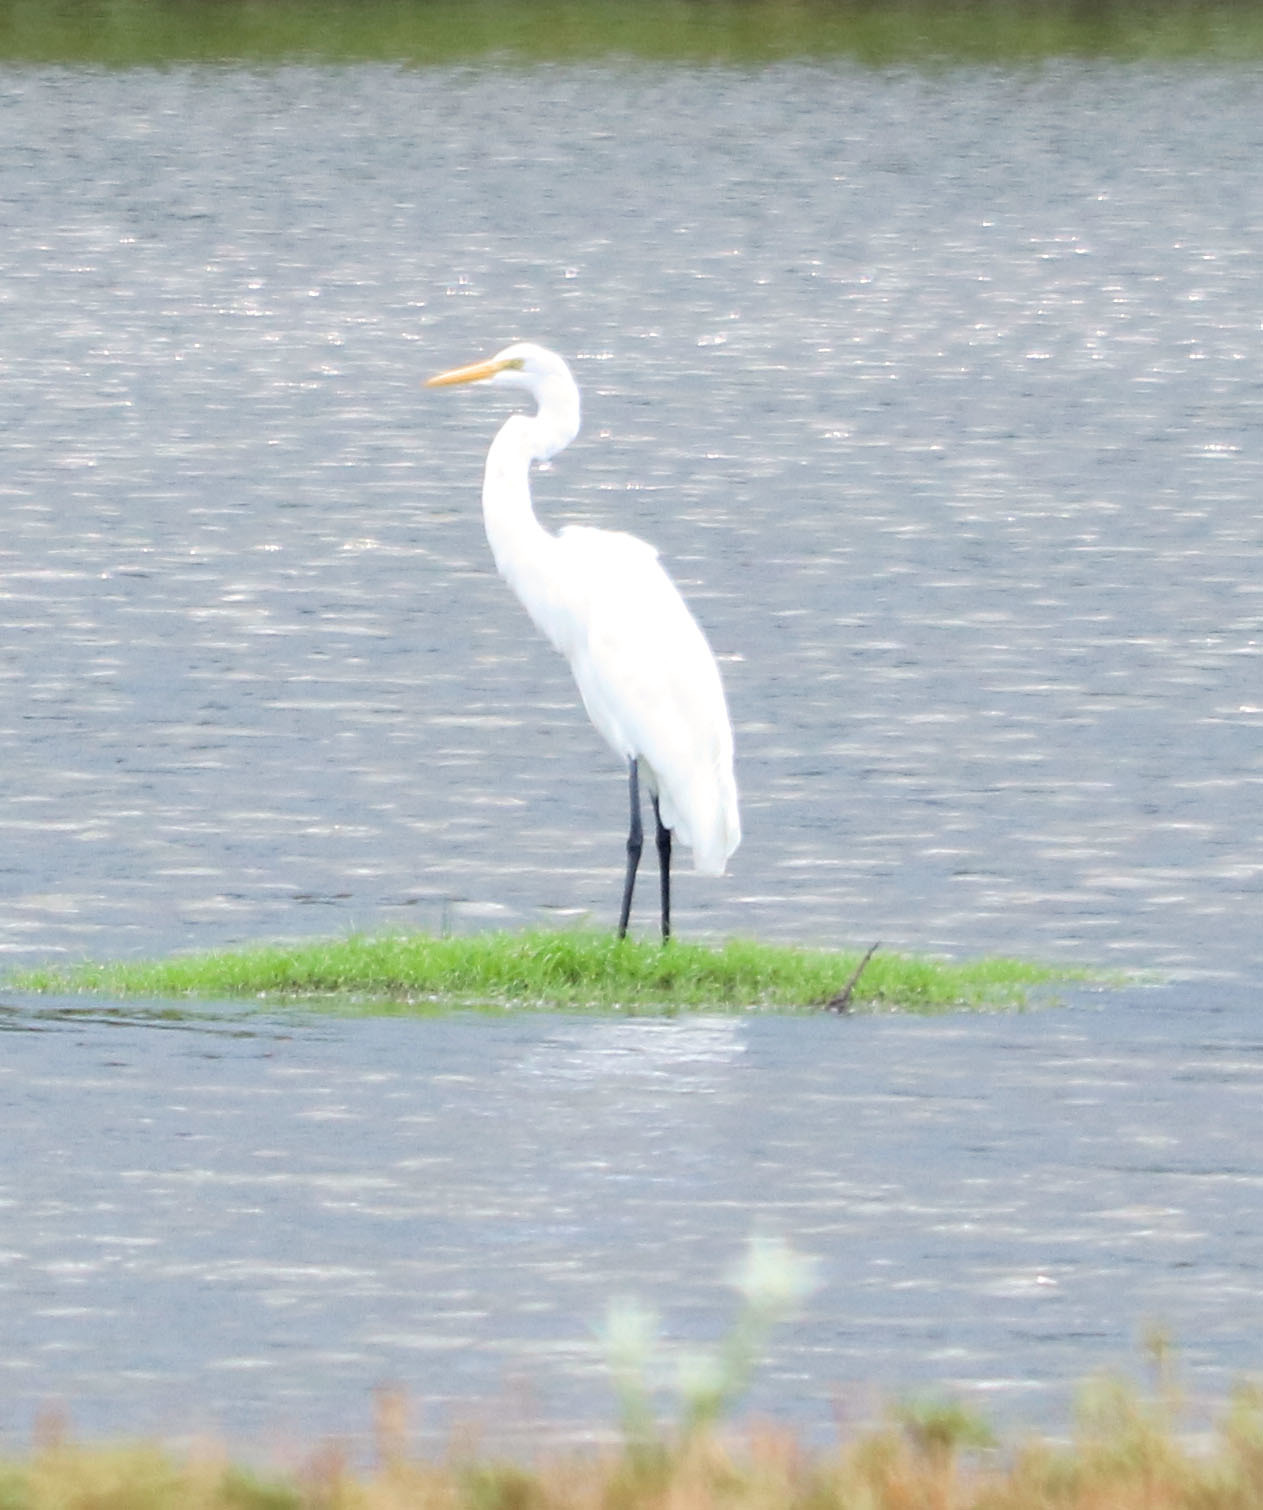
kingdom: Animalia
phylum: Chordata
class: Aves
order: Pelecaniformes
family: Ardeidae
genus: Ardea
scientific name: Ardea alba
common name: Great egret
